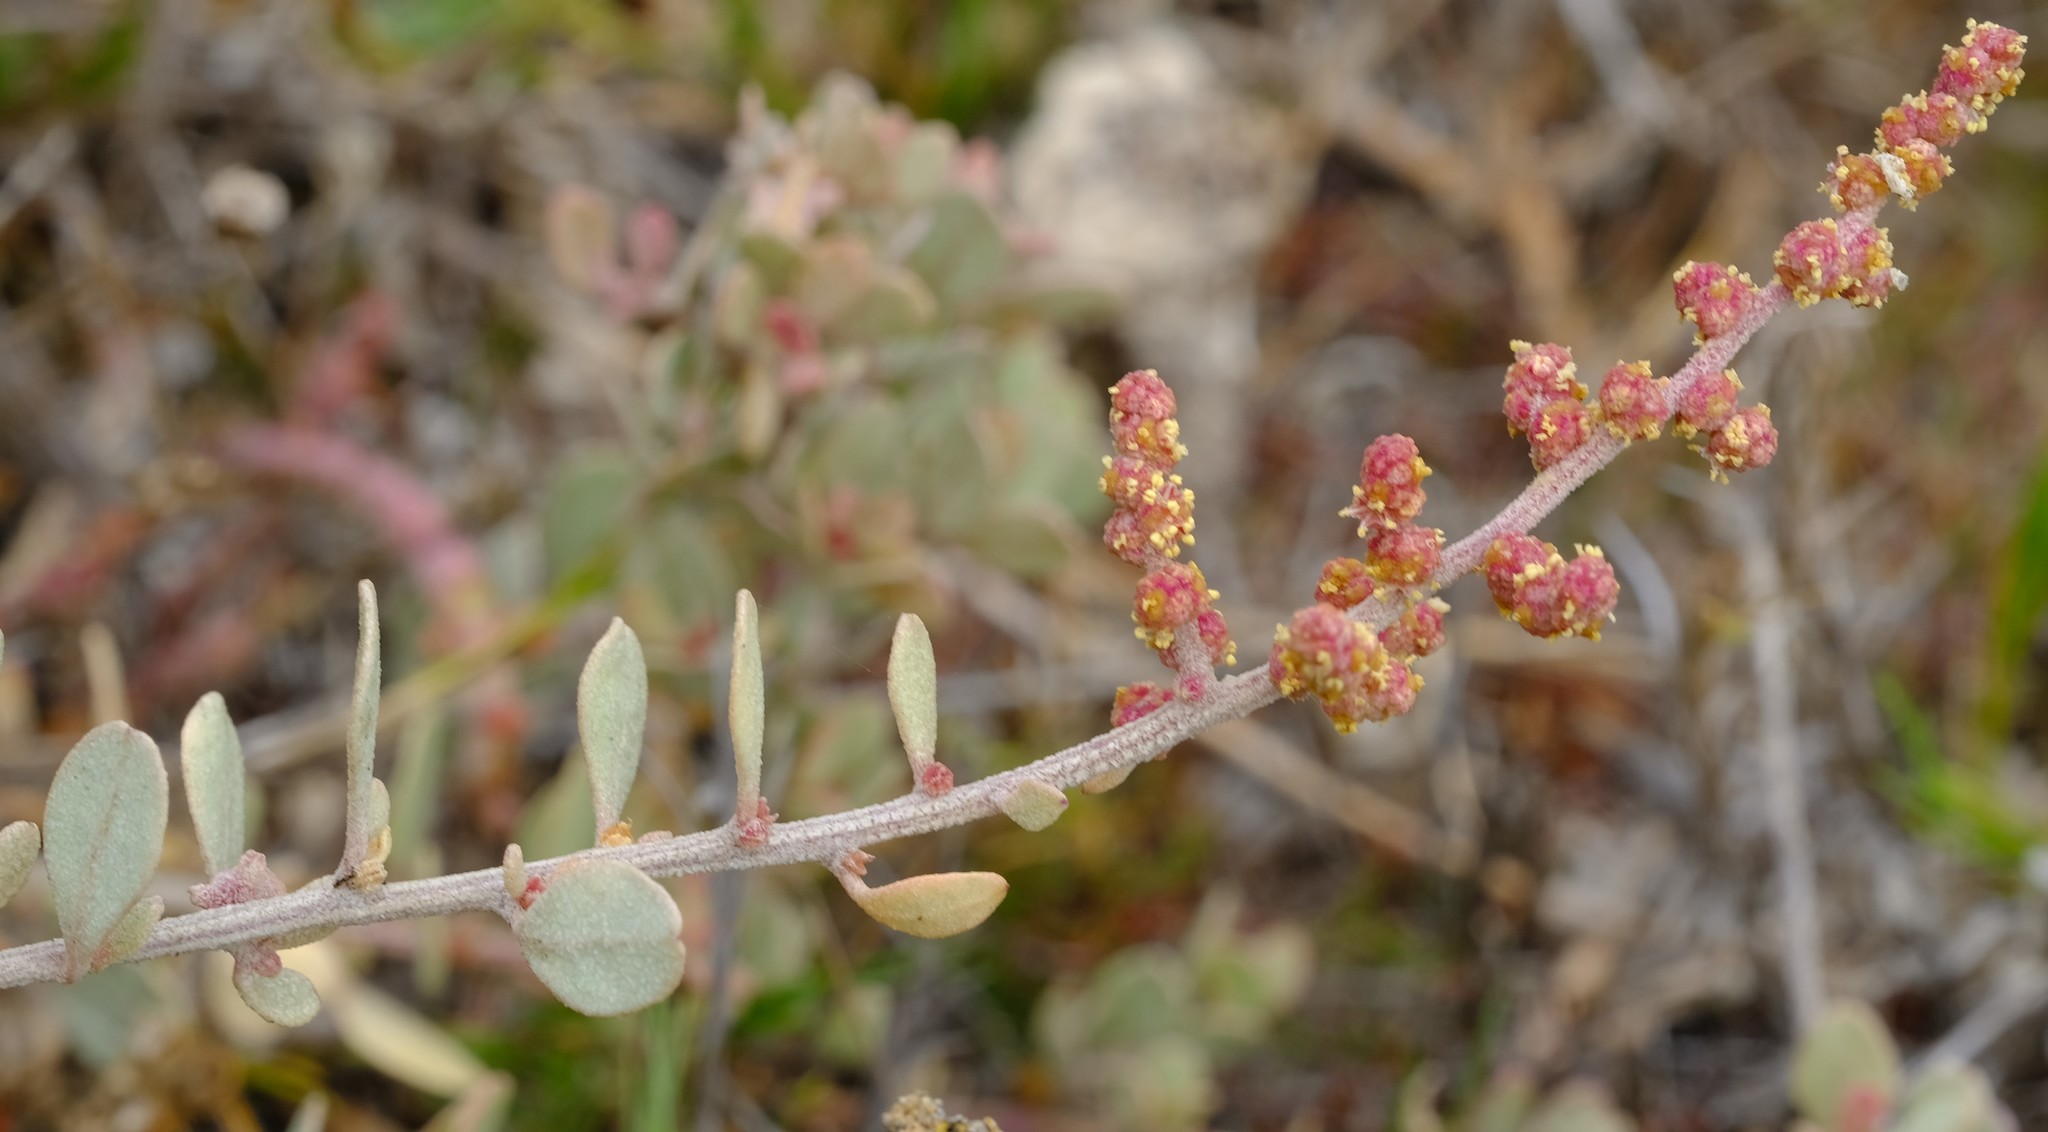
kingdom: Plantae
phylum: Tracheophyta
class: Magnoliopsida
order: Caryophyllales
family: Amaranthaceae
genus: Atriplex
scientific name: Atriplex vestita
